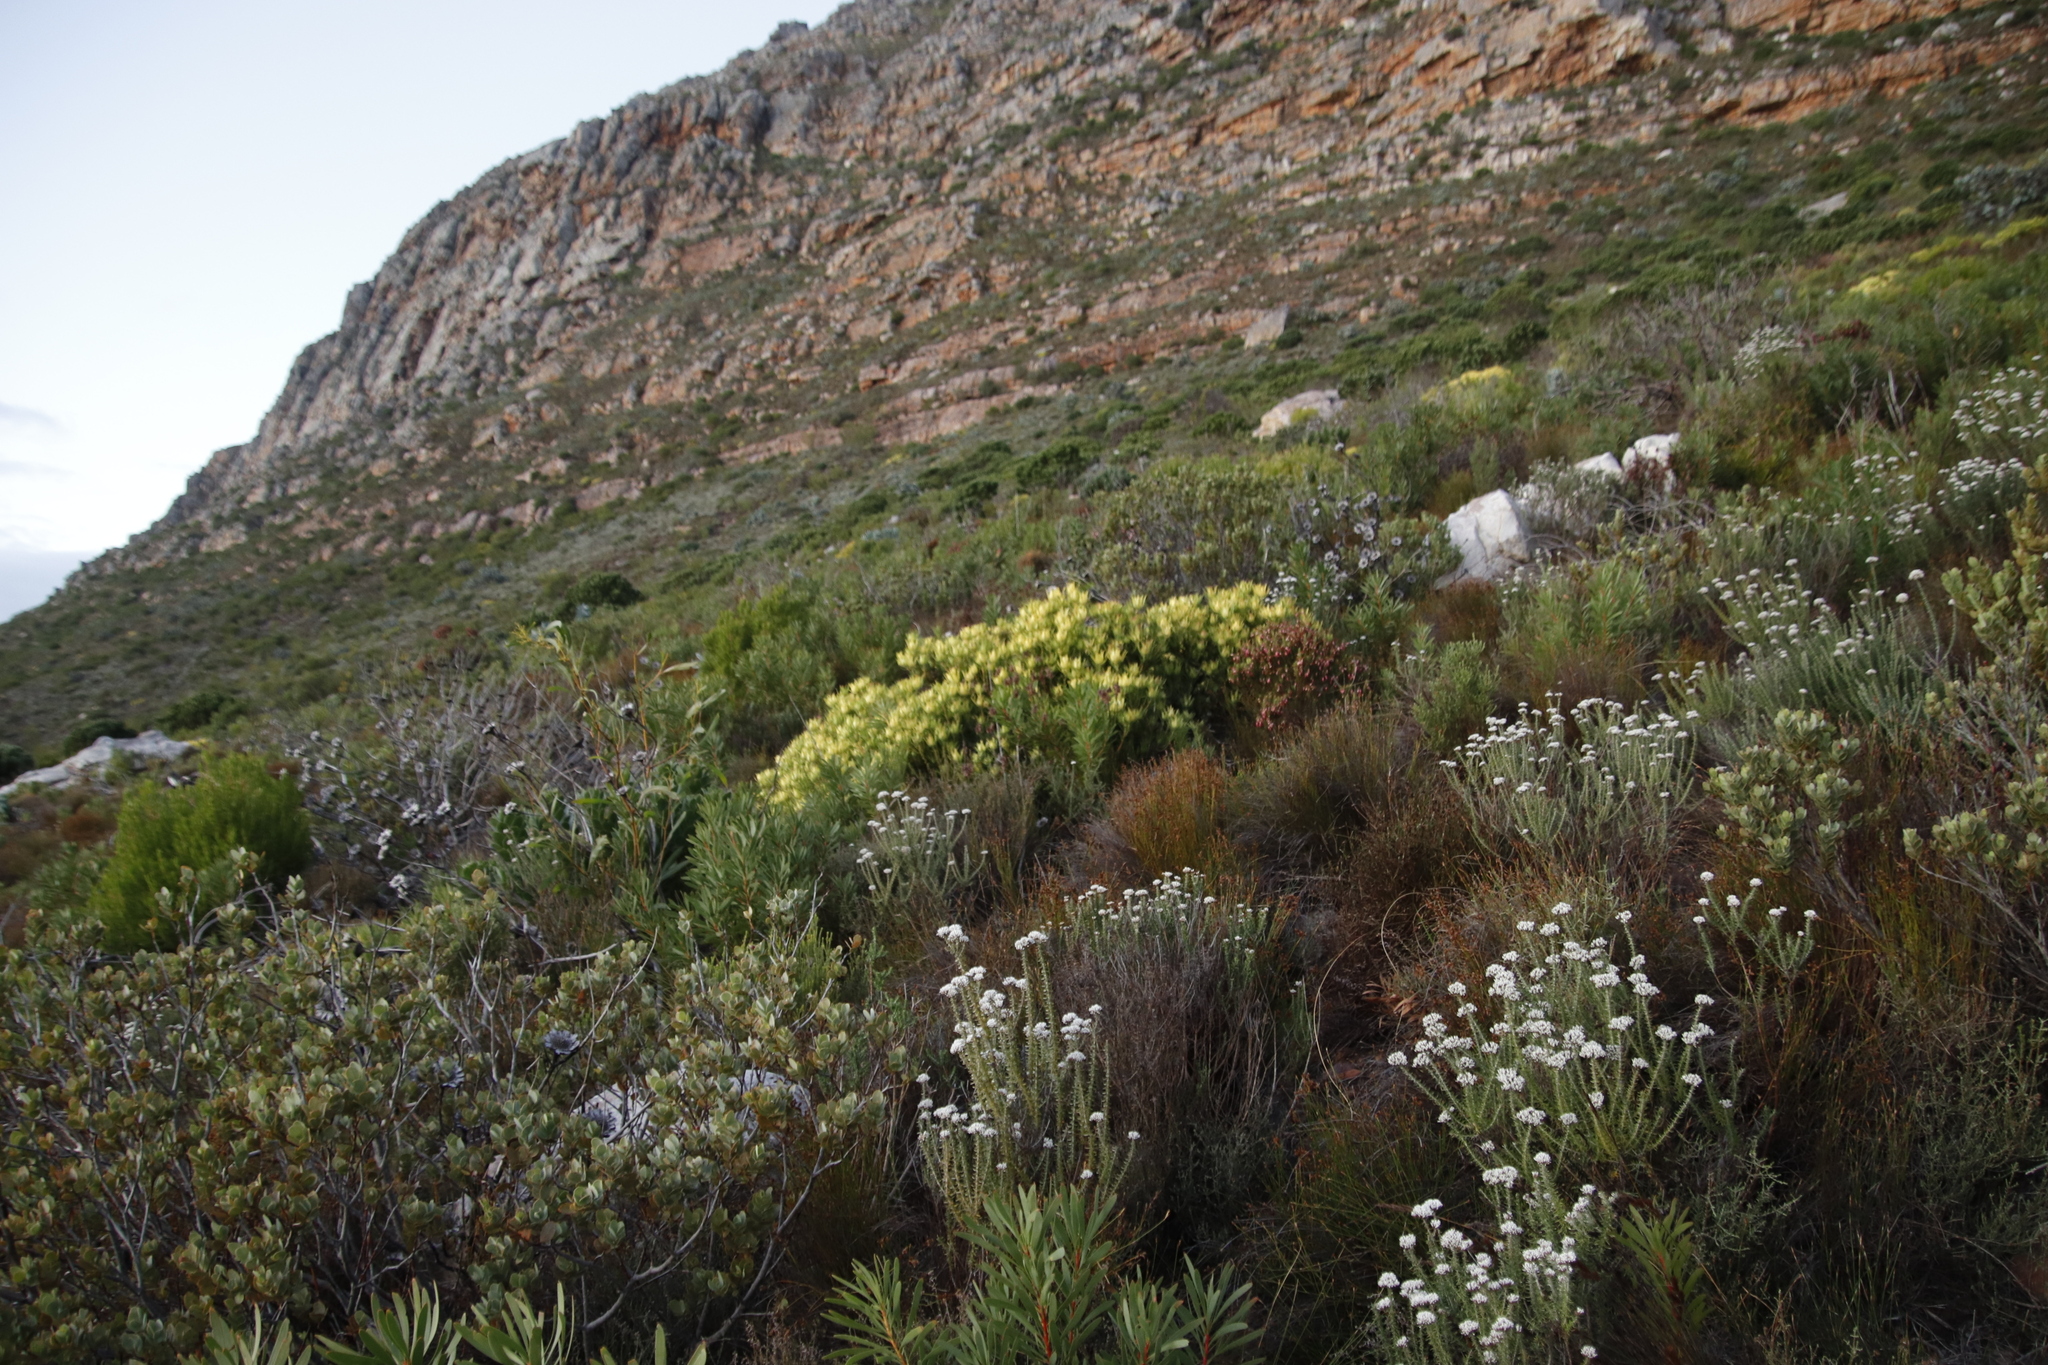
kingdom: Plantae
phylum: Tracheophyta
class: Magnoliopsida
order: Proteales
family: Proteaceae
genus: Leucadendron
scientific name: Leucadendron salignum
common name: Common sunshine conebush
